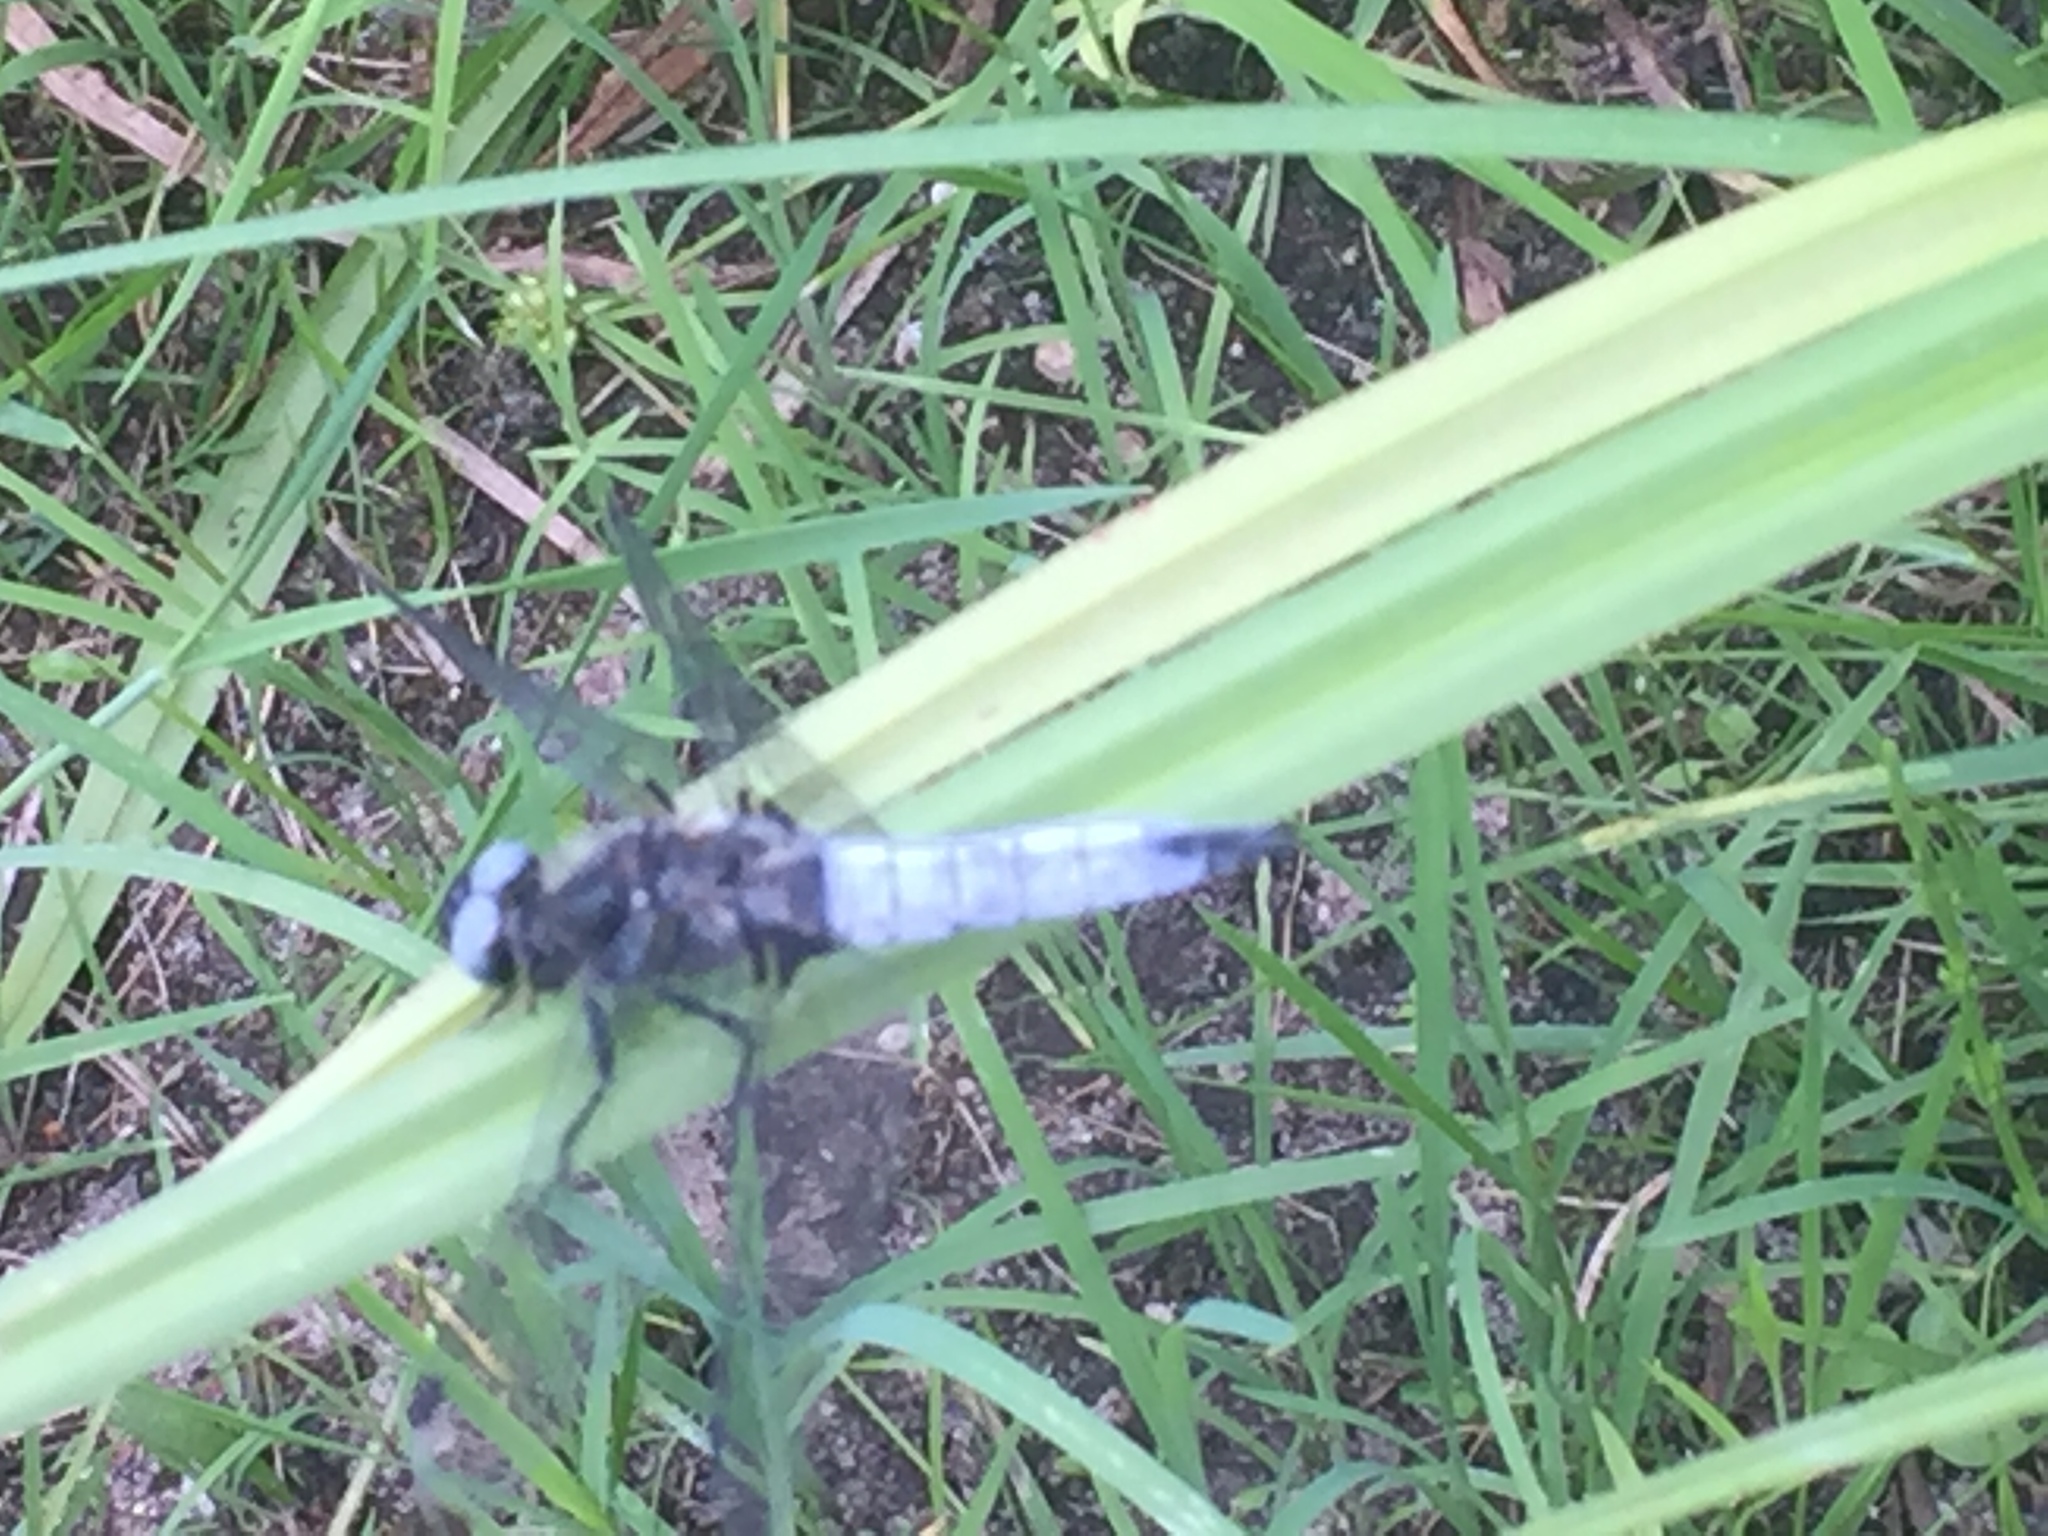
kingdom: Animalia
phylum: Arthropoda
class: Insecta
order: Odonata
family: Libellulidae
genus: Libellula
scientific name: Libellula fulva
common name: Blue chaser
